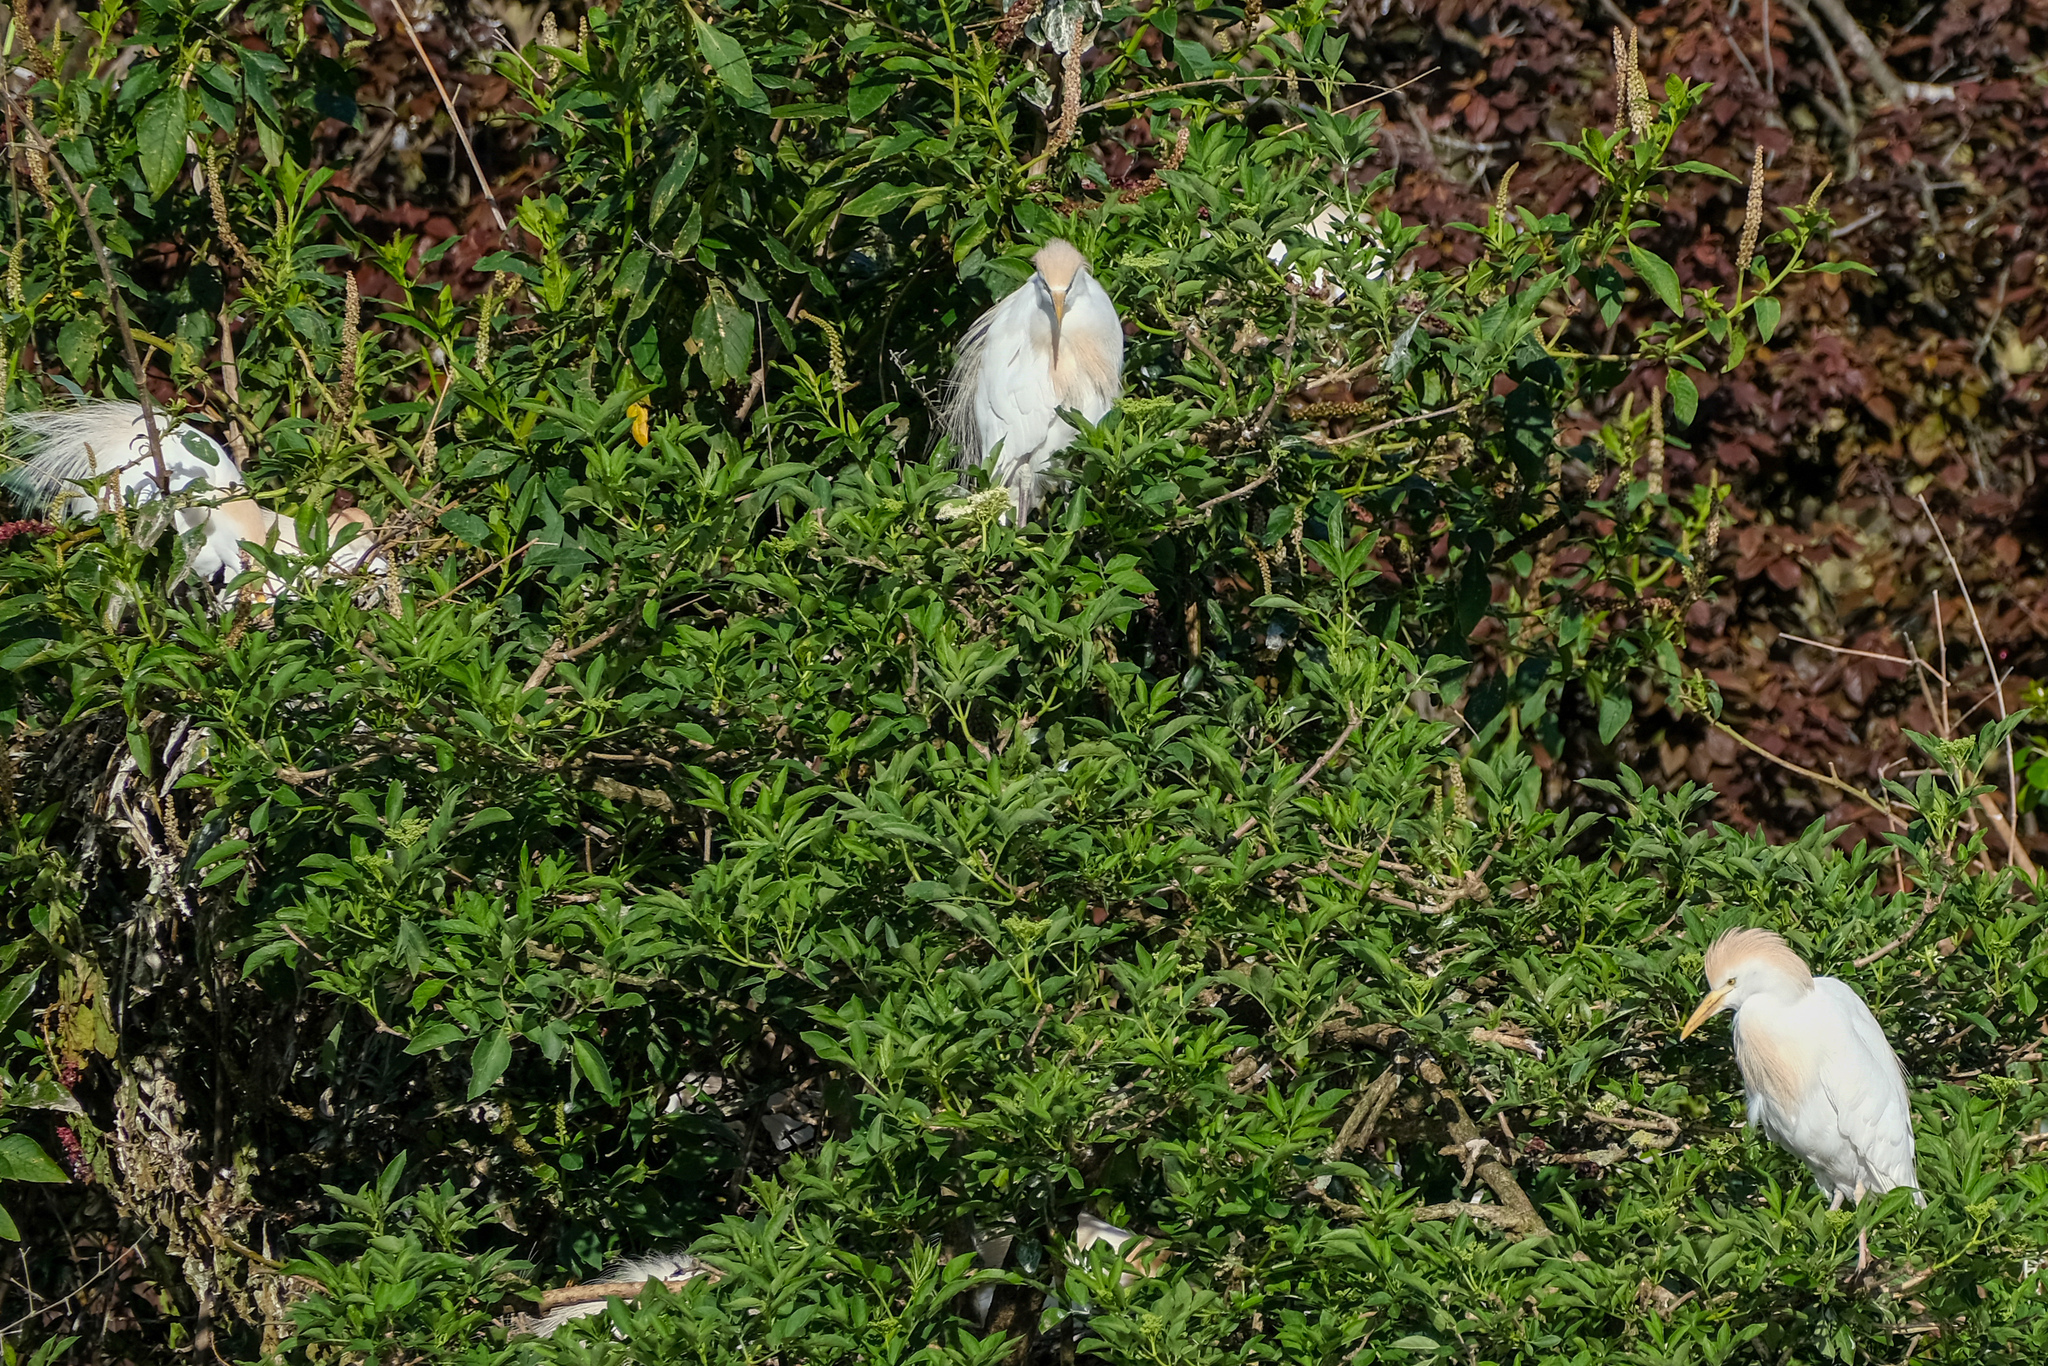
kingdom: Animalia
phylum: Chordata
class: Aves
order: Pelecaniformes
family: Ardeidae
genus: Bubulcus
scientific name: Bubulcus ibis
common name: Cattle egret
